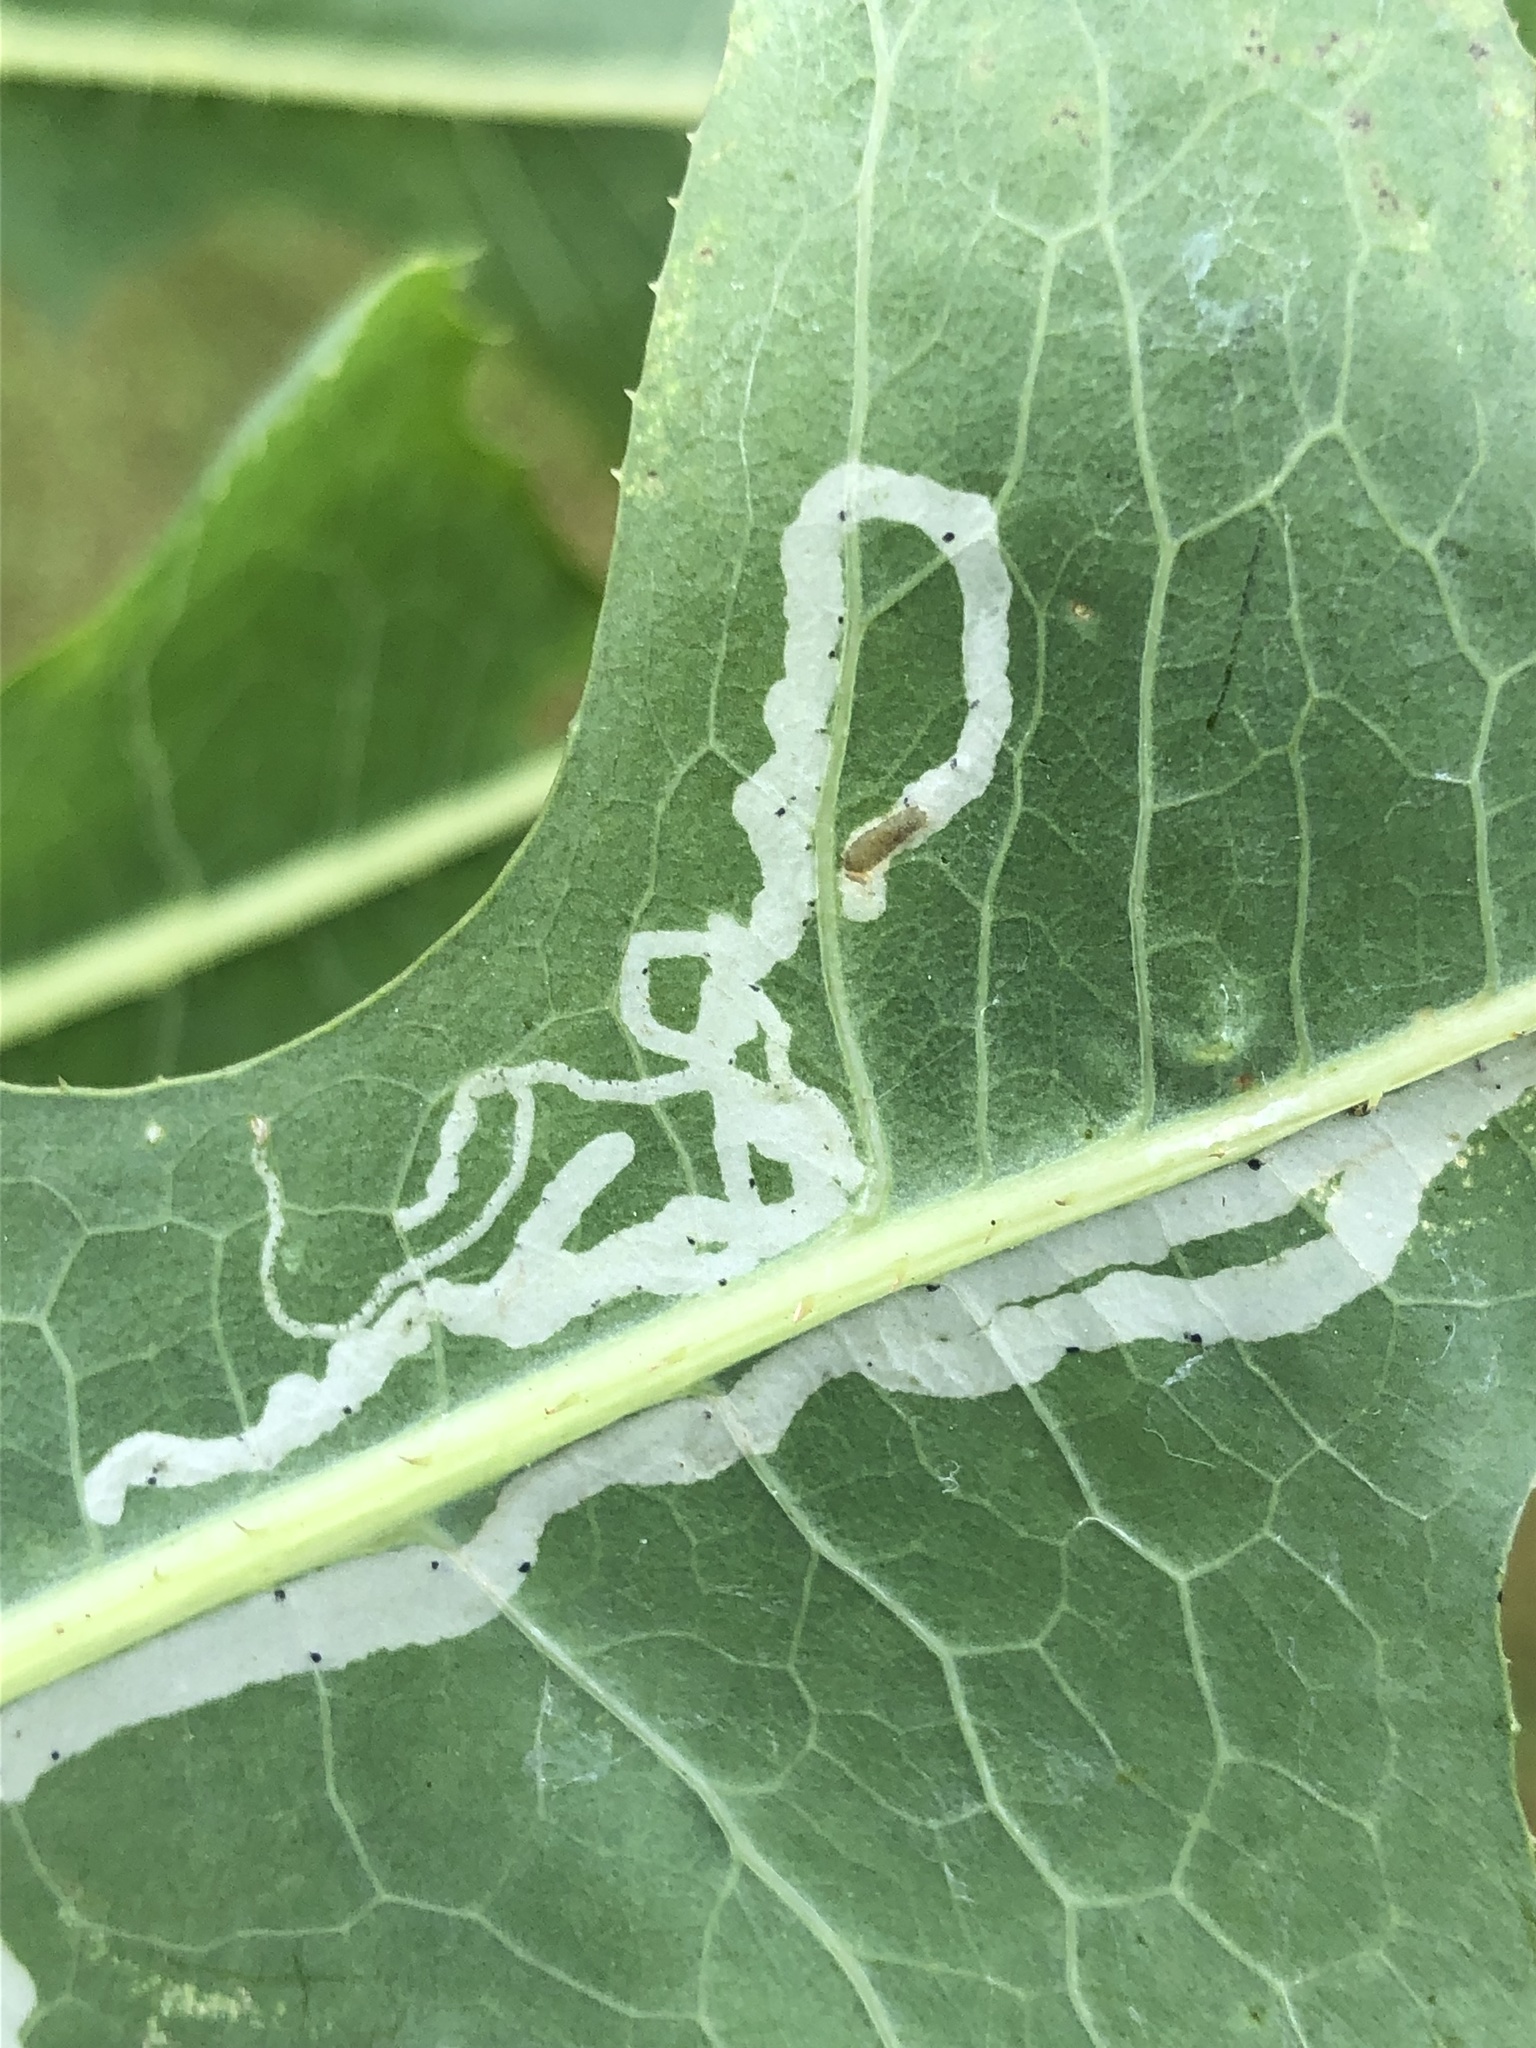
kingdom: Animalia
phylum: Arthropoda
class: Insecta
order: Diptera
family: Agromyzidae
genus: Phytomyza
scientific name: Phytomyza lactuca
